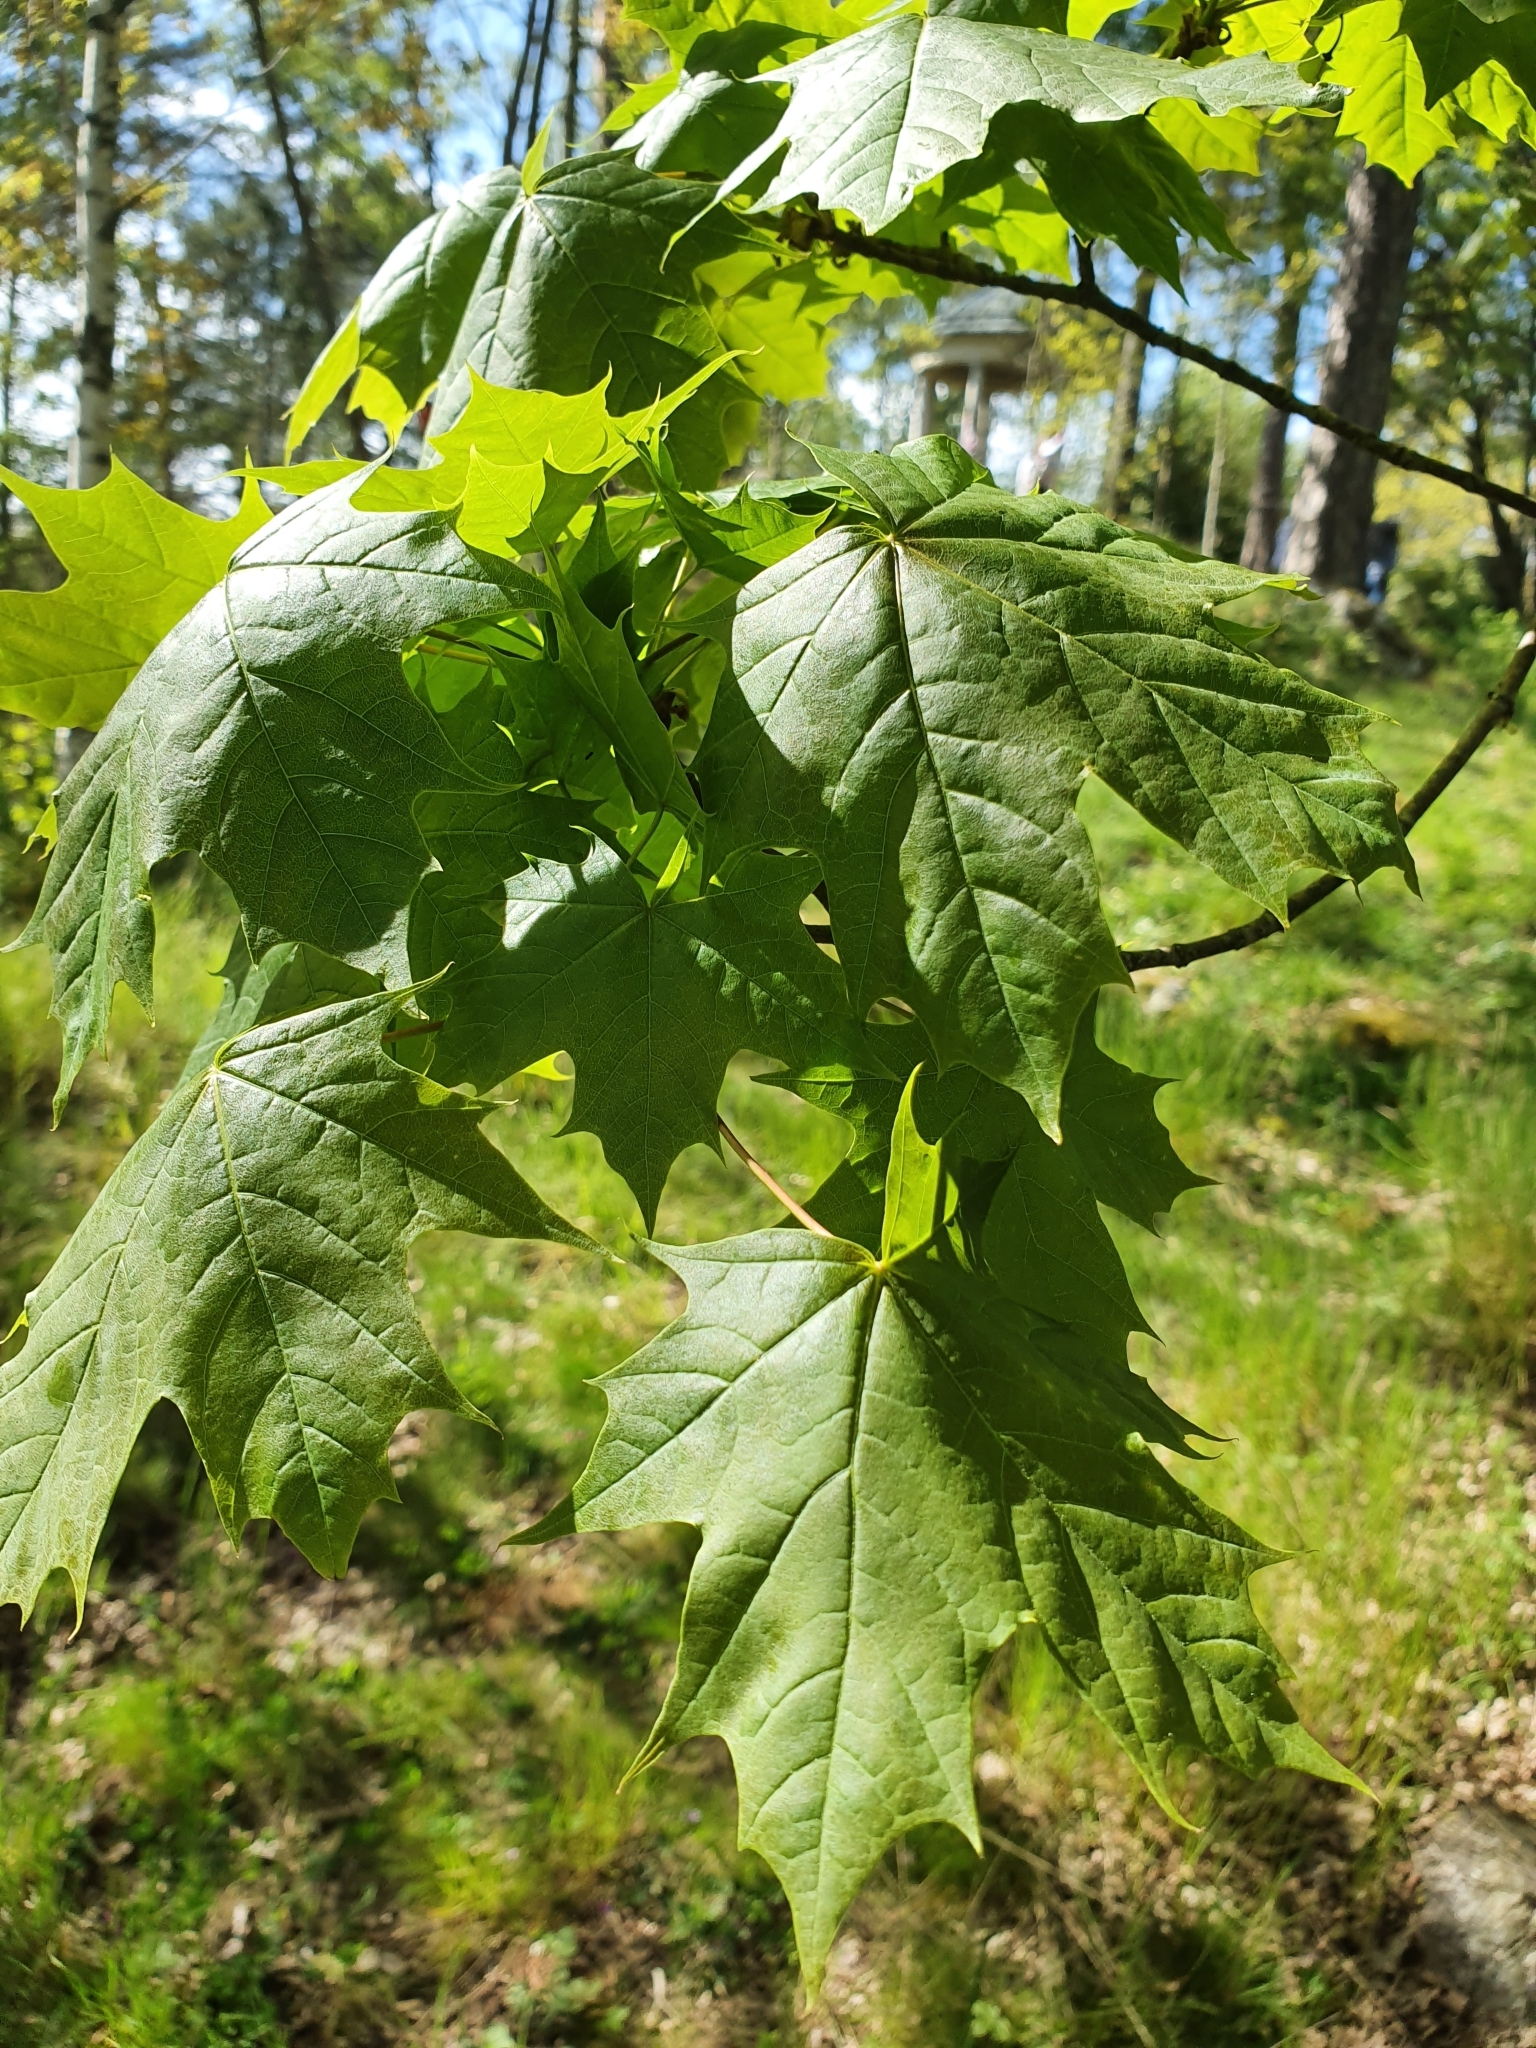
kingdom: Plantae
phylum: Tracheophyta
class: Magnoliopsida
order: Sapindales
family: Sapindaceae
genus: Acer
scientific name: Acer platanoides
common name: Norway maple
